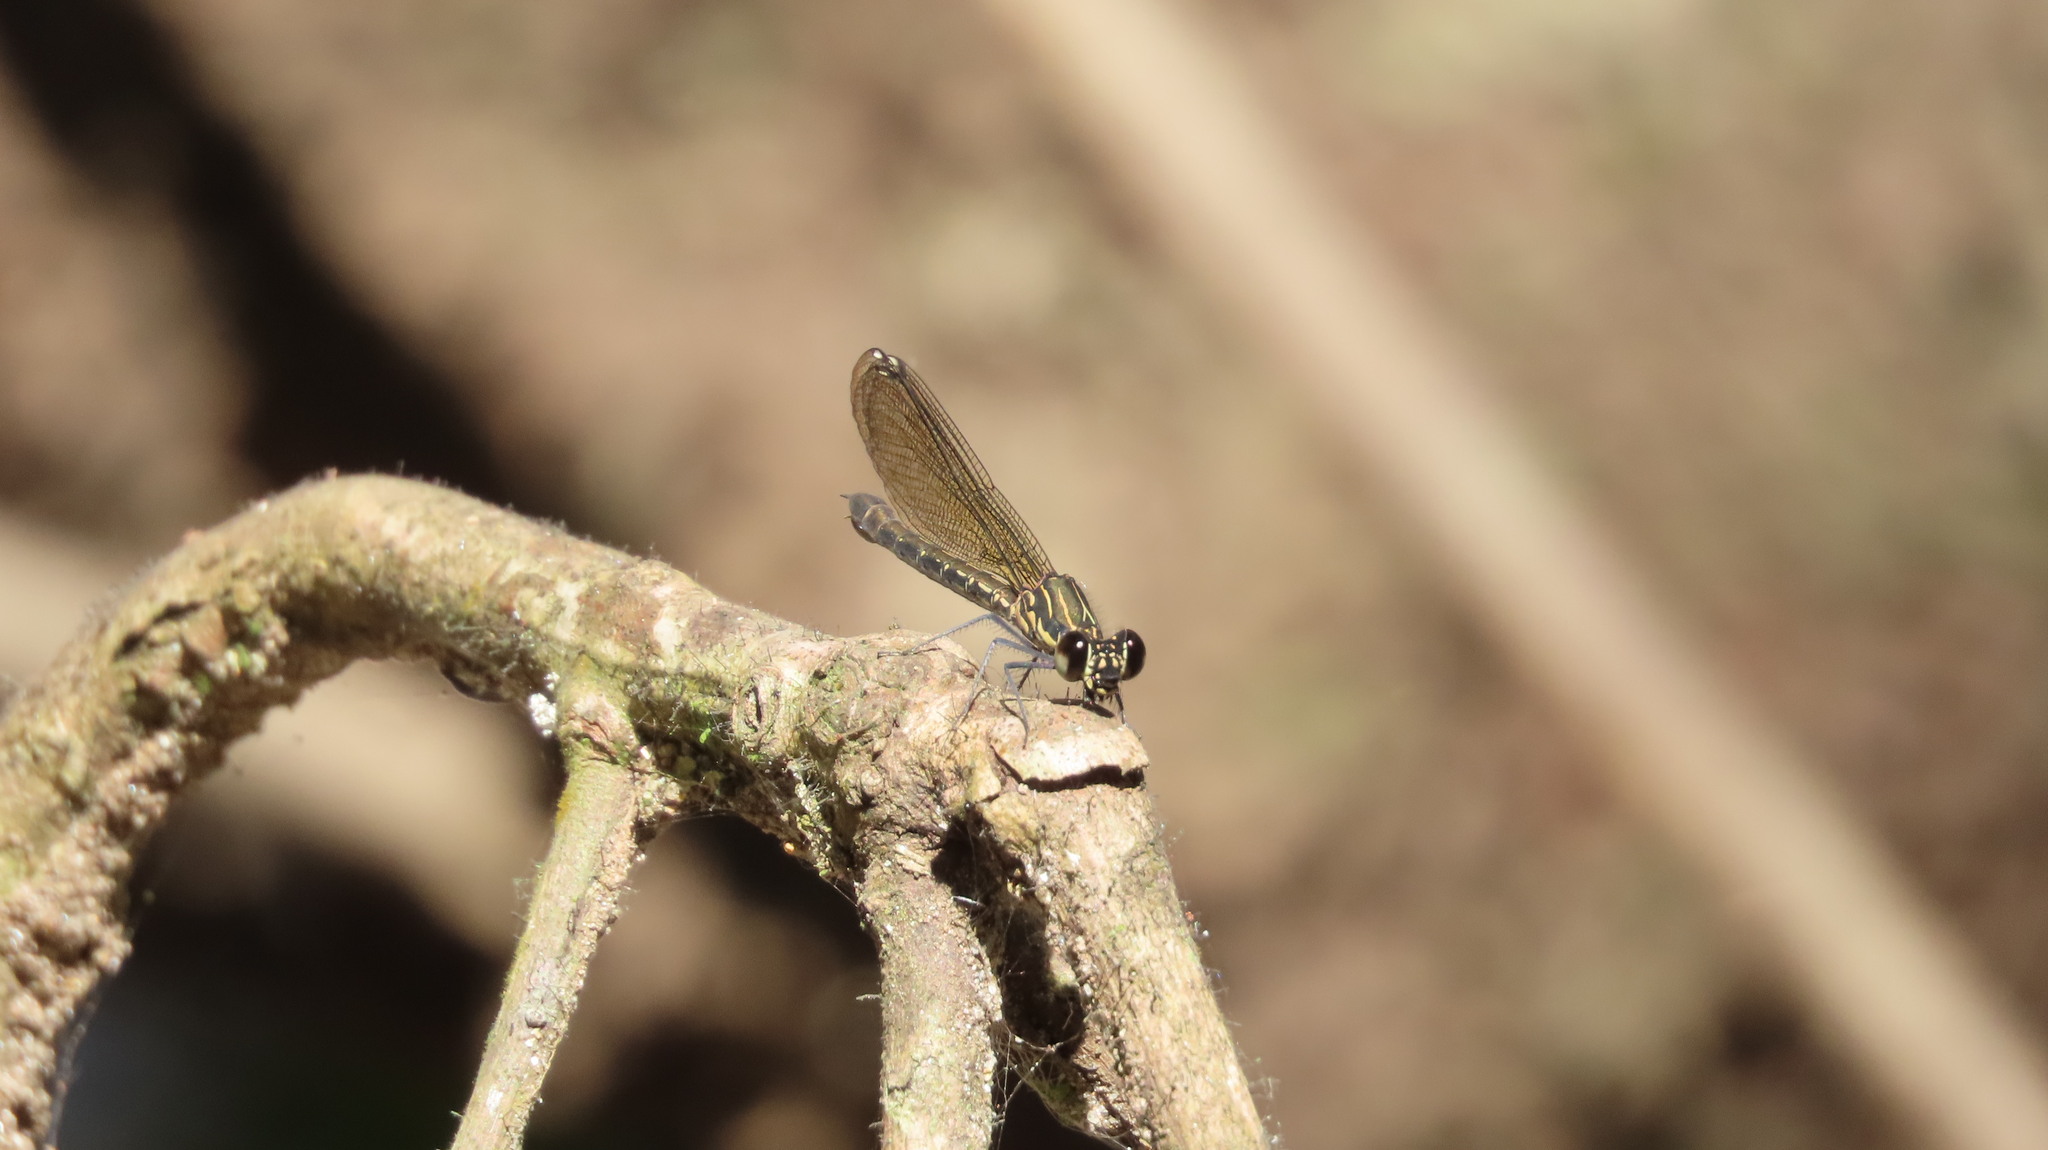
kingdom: Animalia
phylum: Arthropoda
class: Insecta
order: Odonata
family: Chlorocyphidae
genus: Heliocypha
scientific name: Heliocypha bisignata
